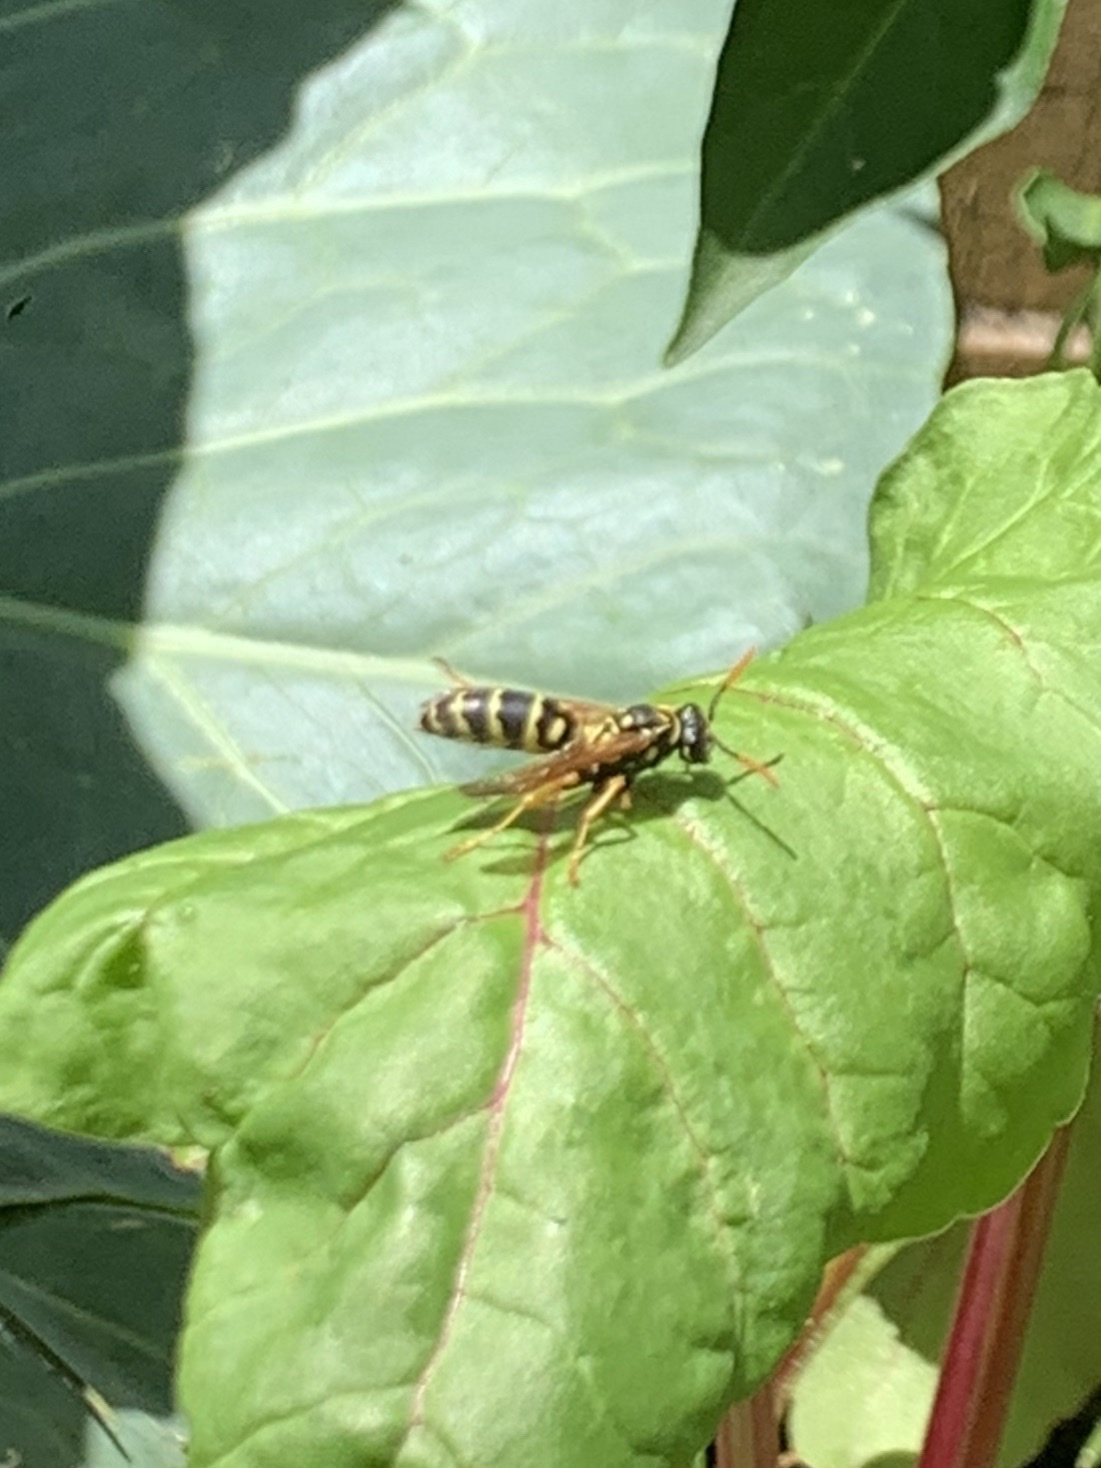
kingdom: Animalia
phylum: Arthropoda
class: Insecta
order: Hymenoptera
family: Eumenidae
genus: Polistes
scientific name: Polistes dominula
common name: Paper wasp
